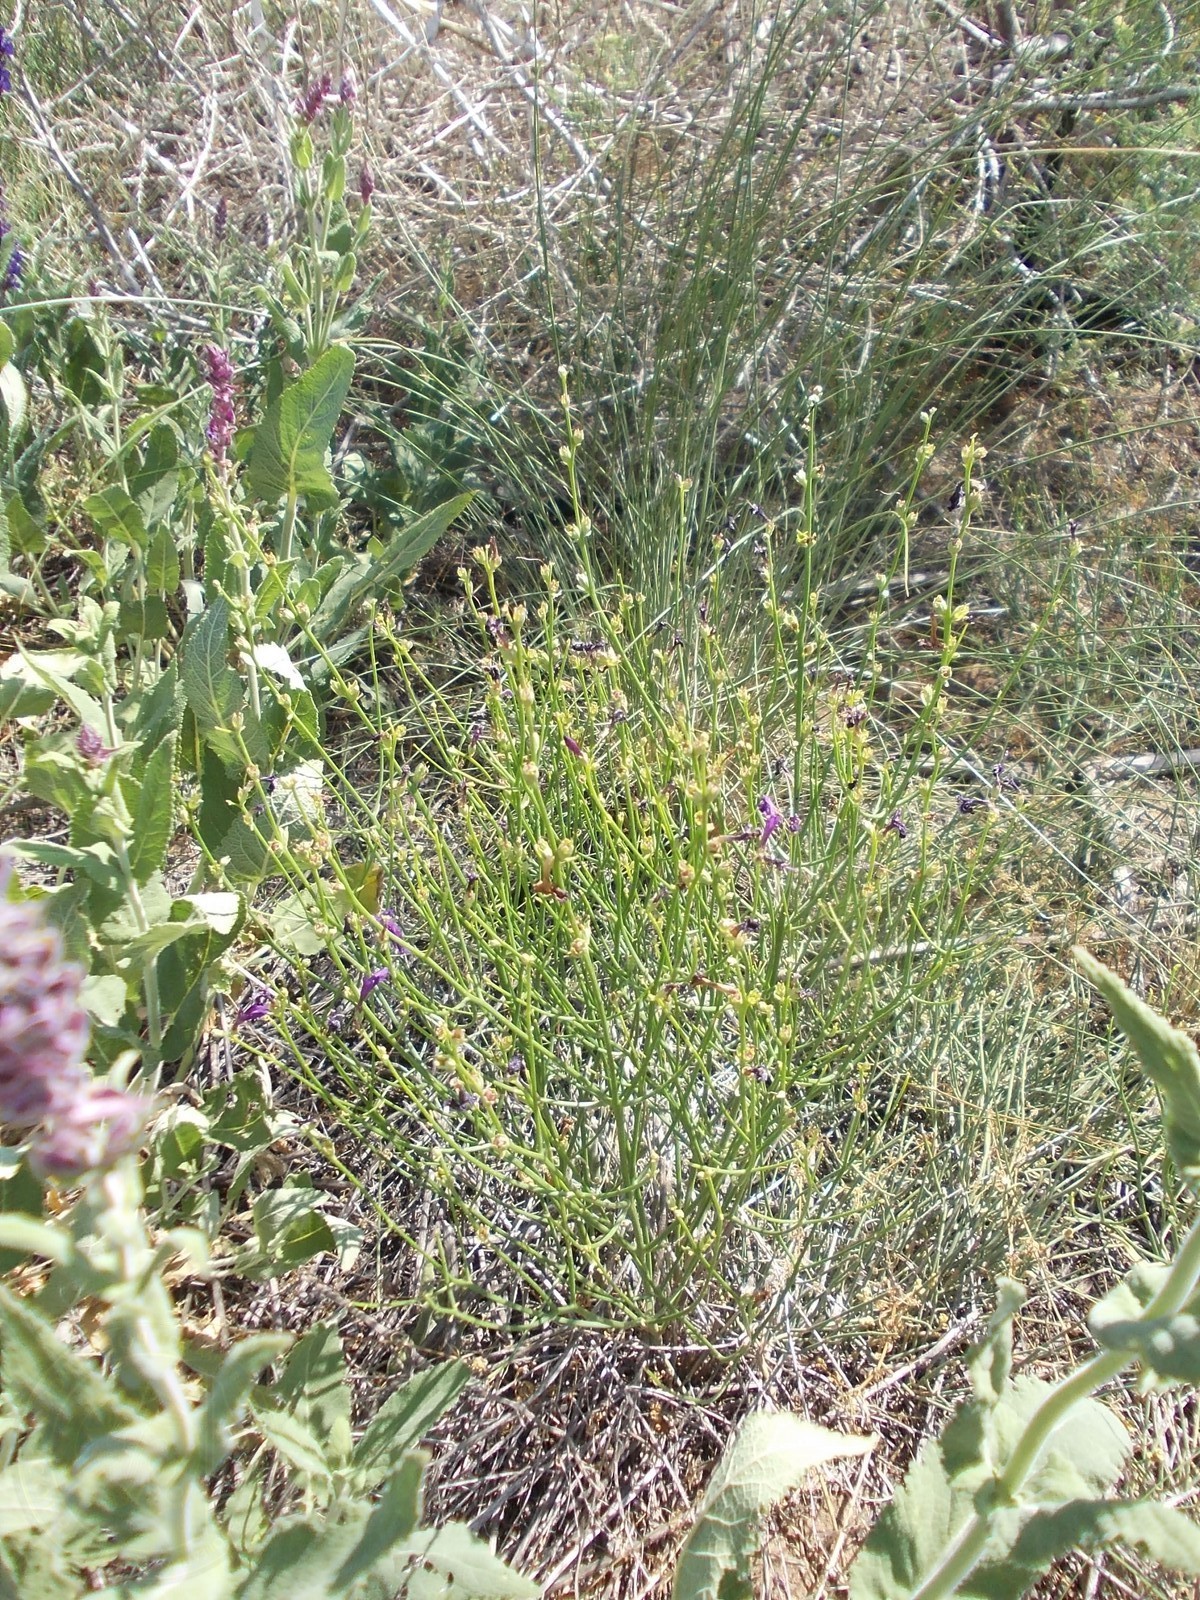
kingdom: Plantae
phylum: Tracheophyta
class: Magnoliopsida
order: Lamiales
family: Mazaceae
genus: Dodartia
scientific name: Dodartia orientalis
